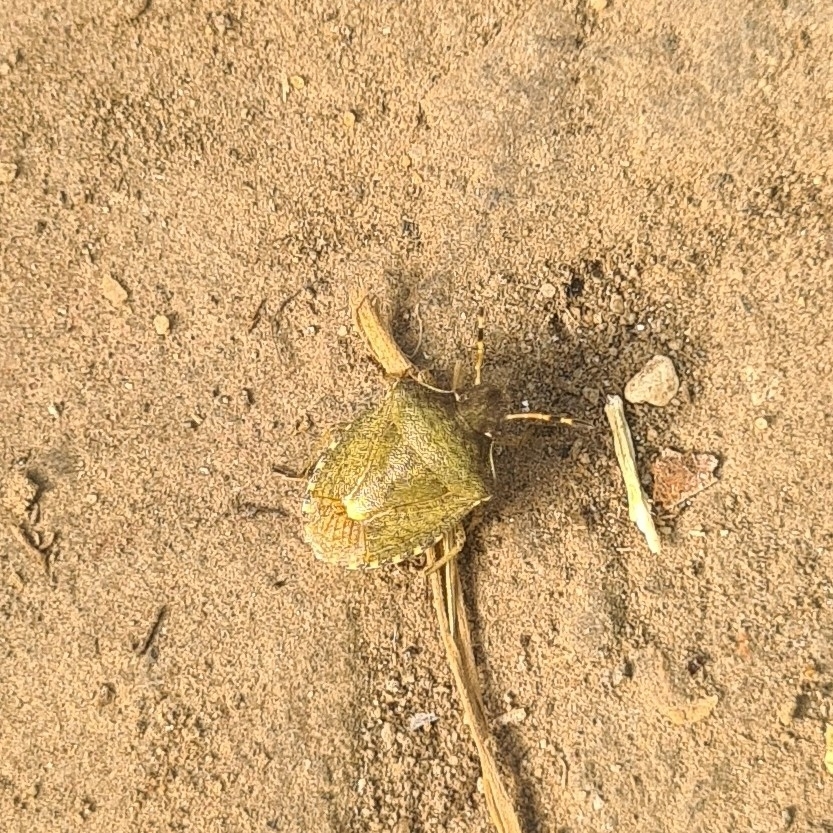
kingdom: Animalia
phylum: Arthropoda
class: Insecta
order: Hemiptera
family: Pentatomidae
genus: Holcostethus
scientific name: Holcostethus strictus
